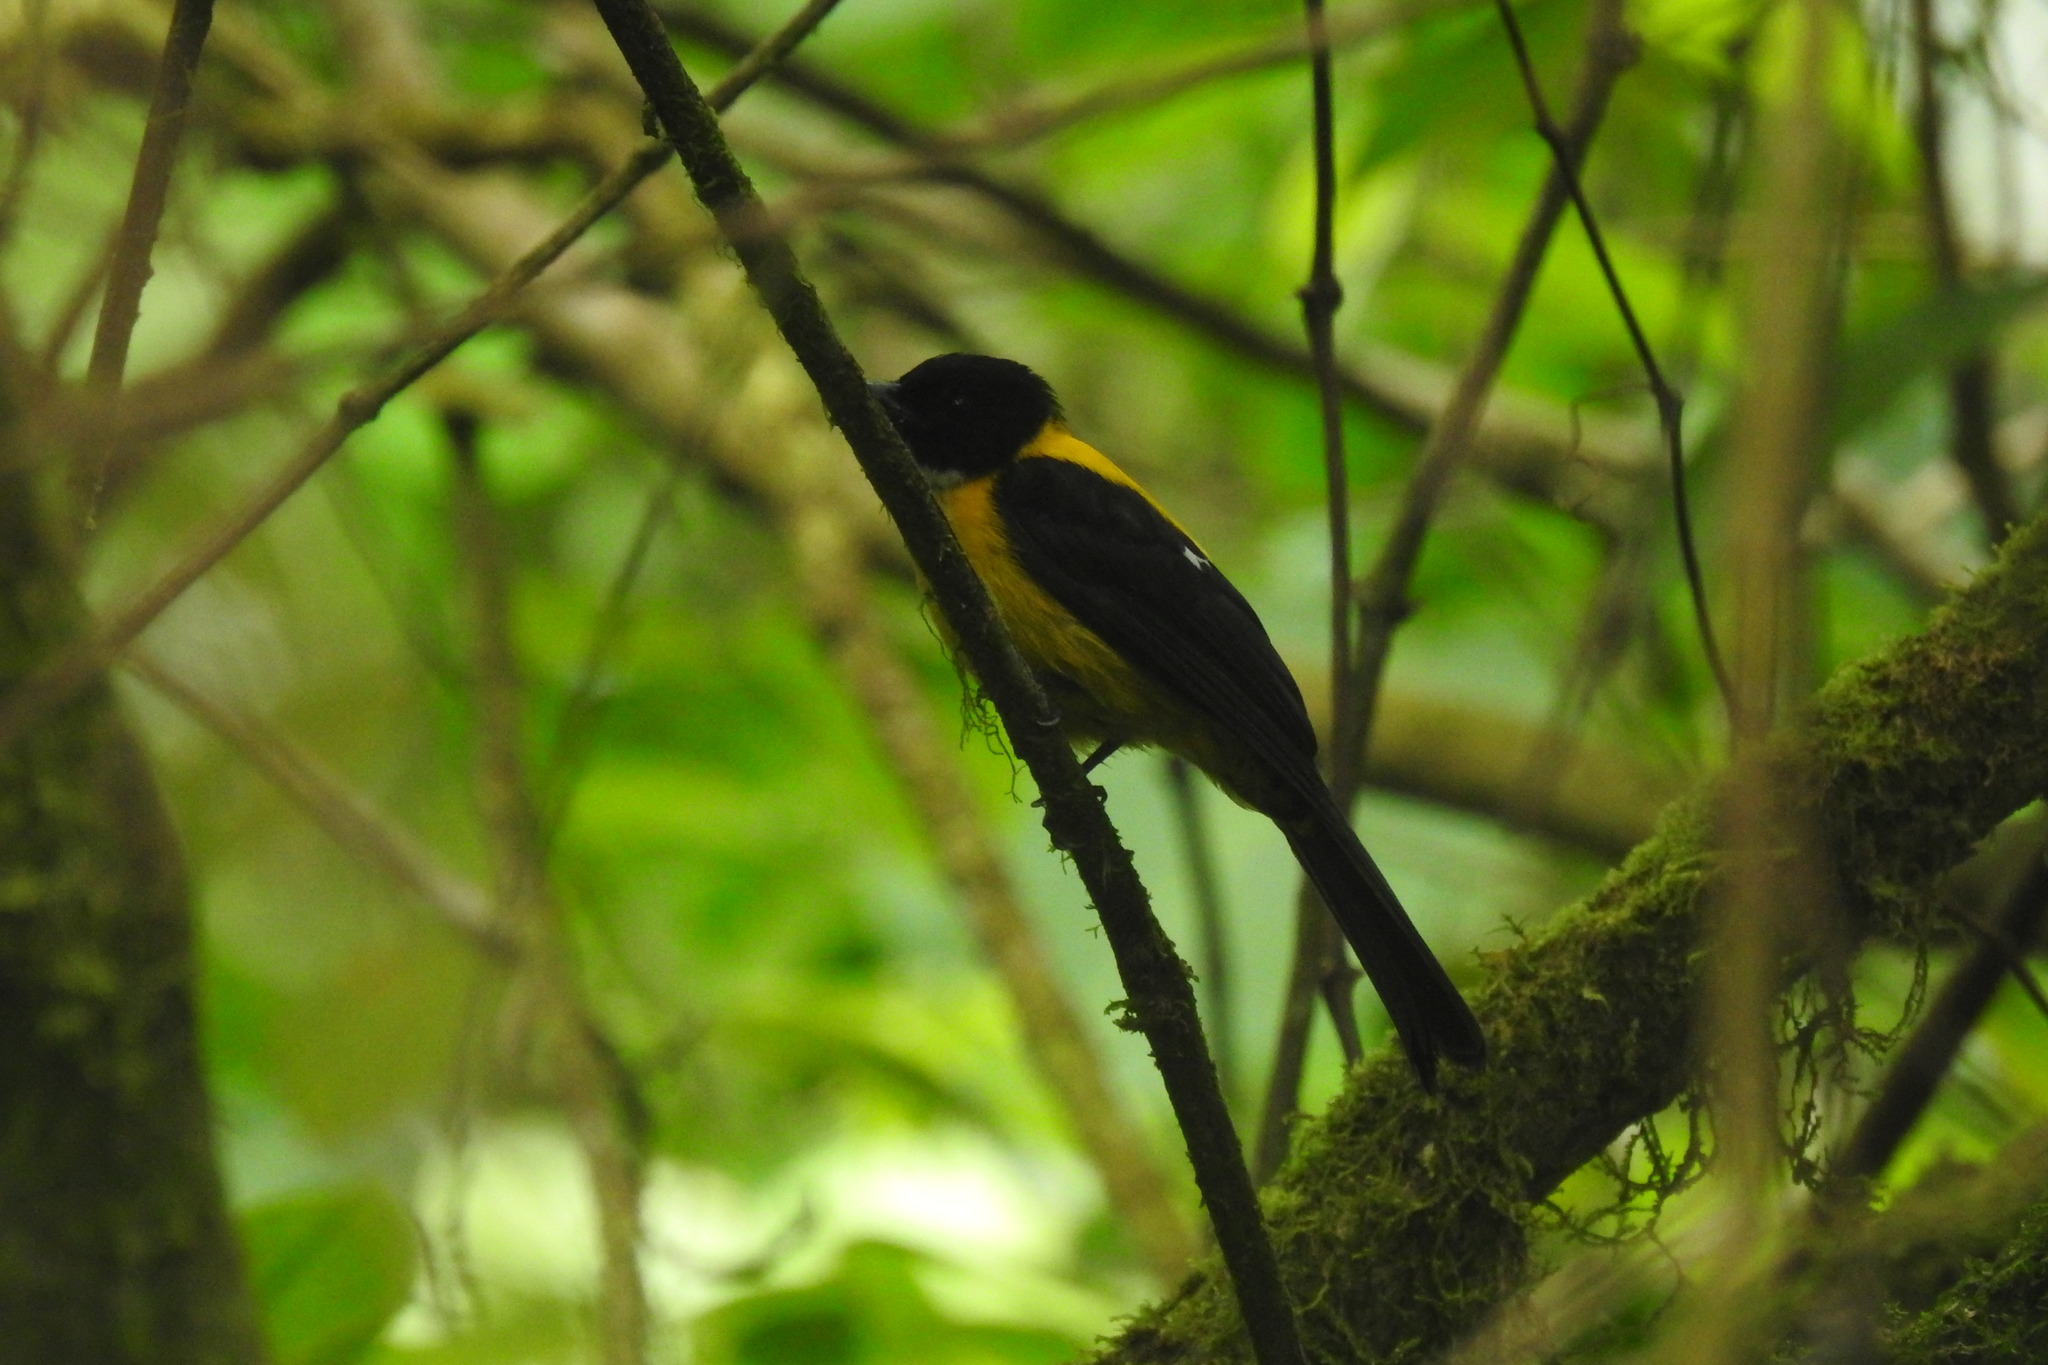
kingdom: Animalia
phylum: Chordata
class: Aves
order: Passeriformes
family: Thraupidae
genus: Lanio
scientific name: Lanio leucothorax
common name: White-throated shrike-tanager
